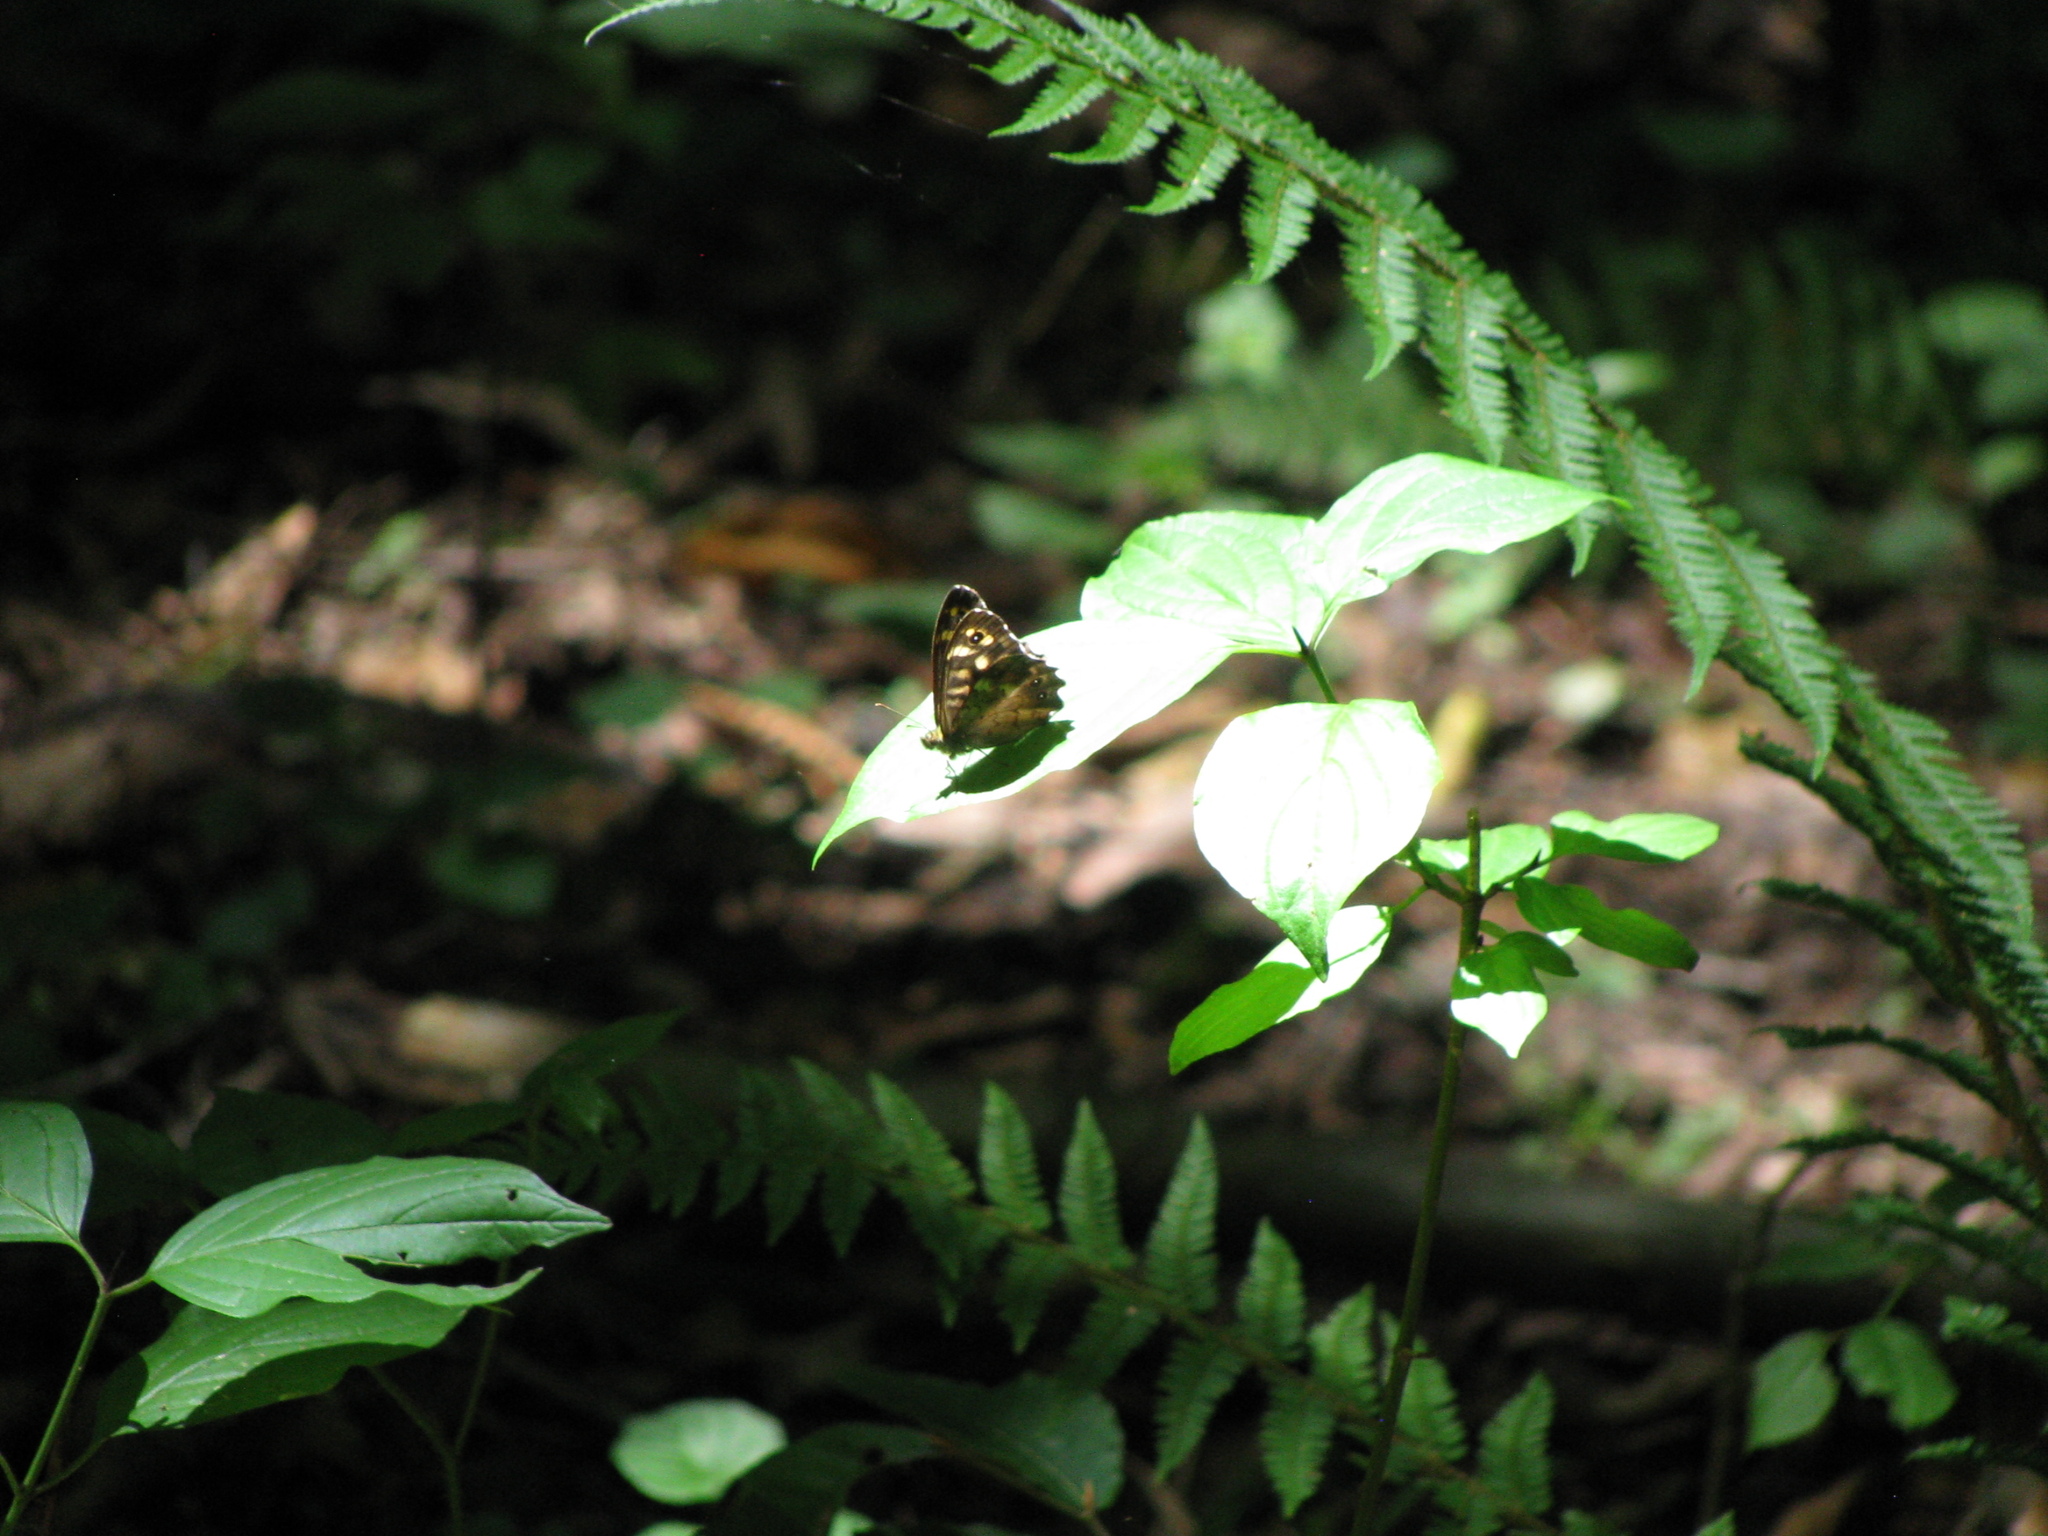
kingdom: Animalia
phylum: Arthropoda
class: Insecta
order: Lepidoptera
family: Nymphalidae
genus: Pararge
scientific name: Pararge aegeria
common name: Speckled wood
